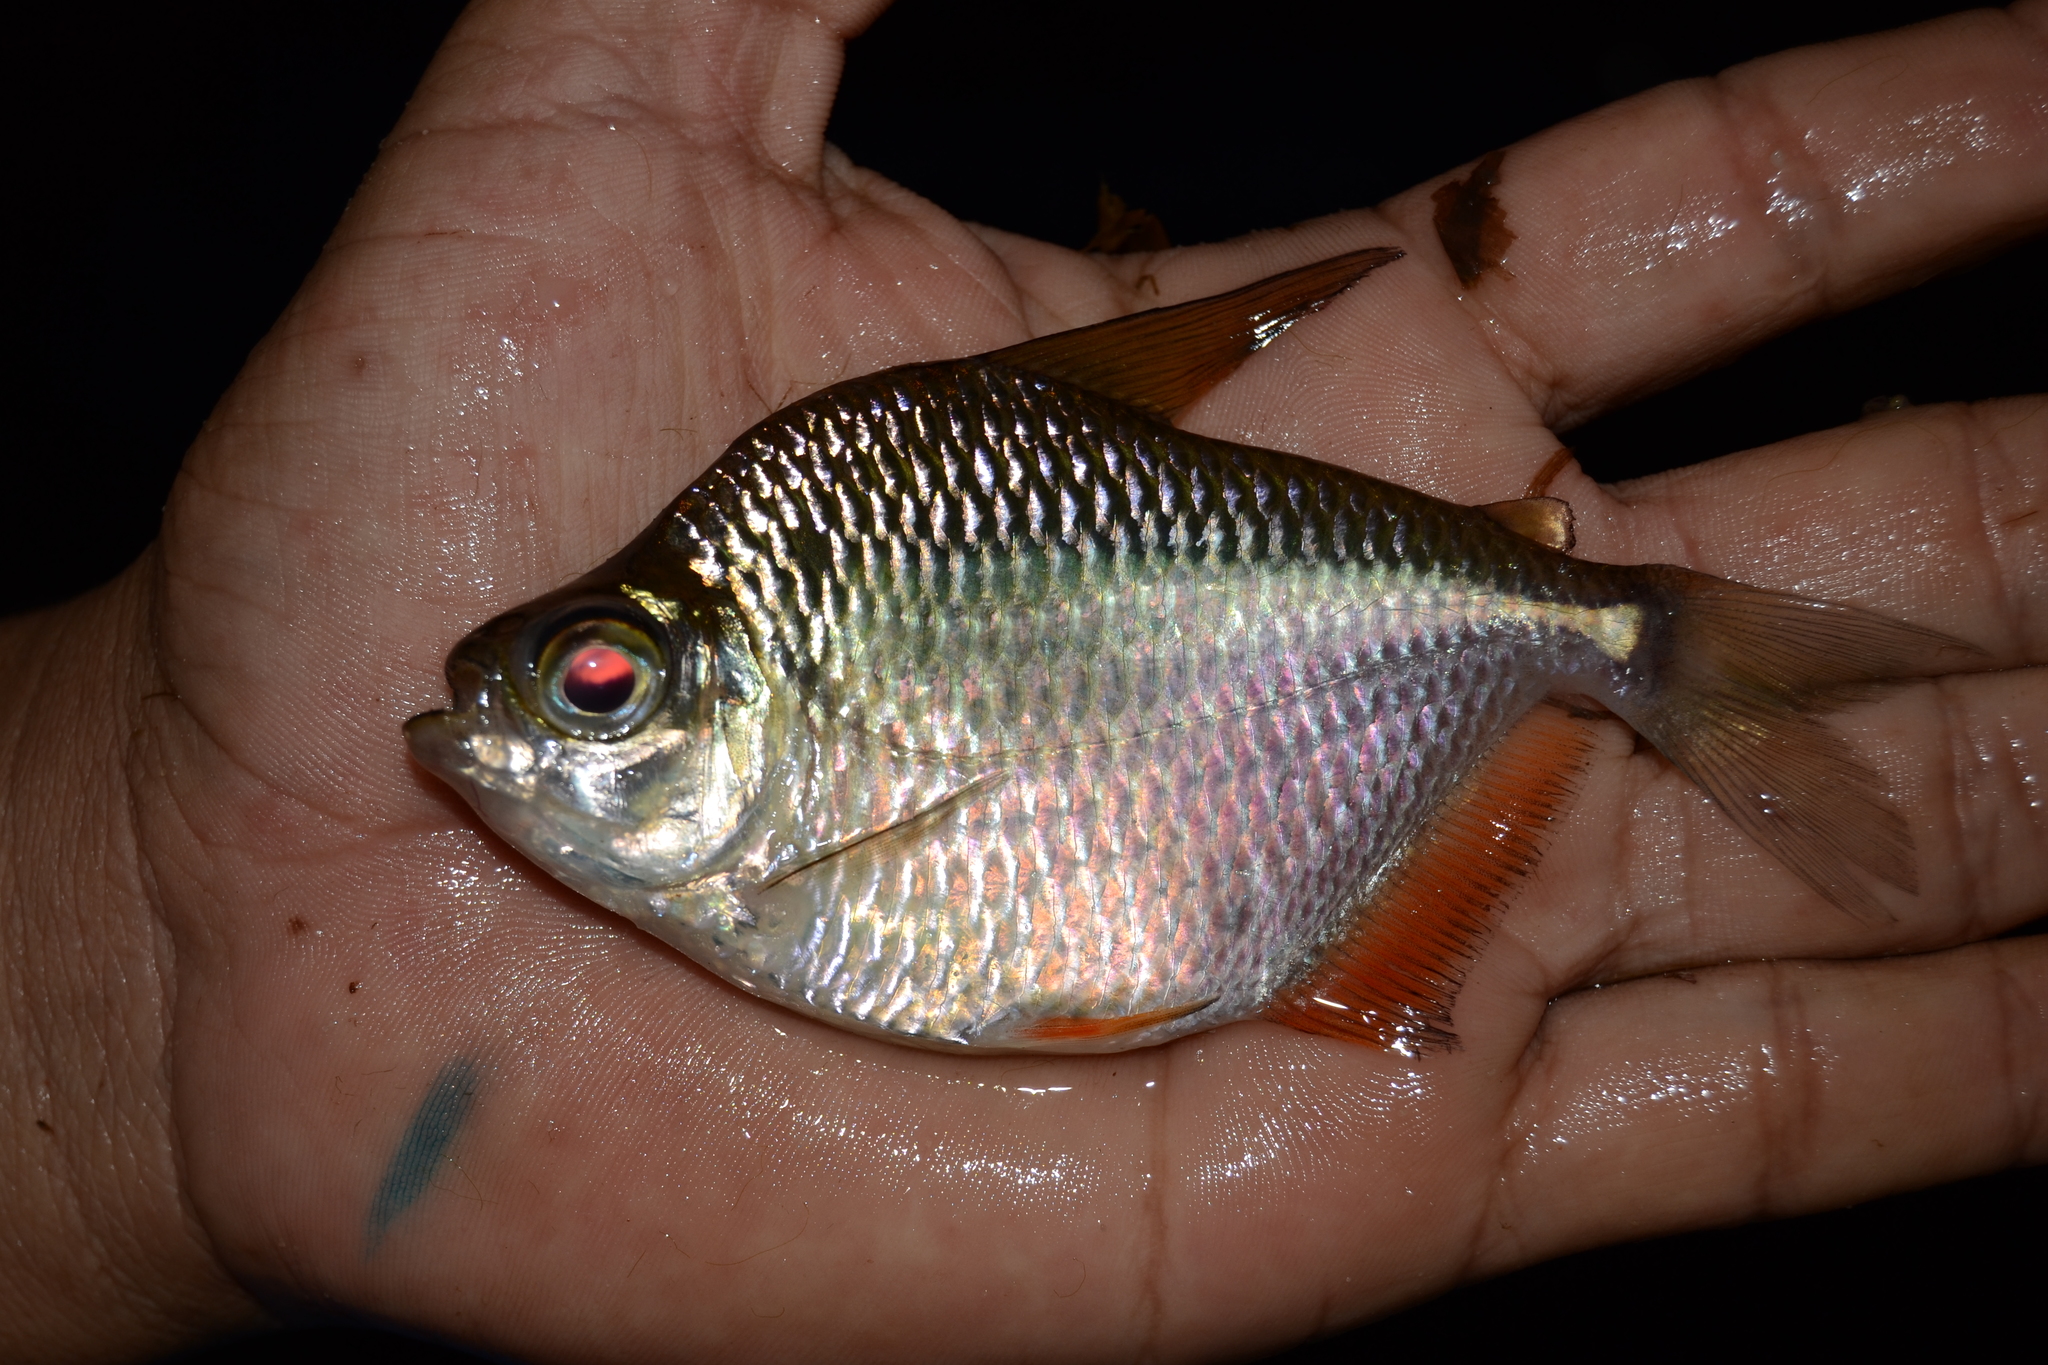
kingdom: Animalia
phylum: Chordata
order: Characiformes
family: Characidae
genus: Tetragonopterus
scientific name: Tetragonopterus argenteus
